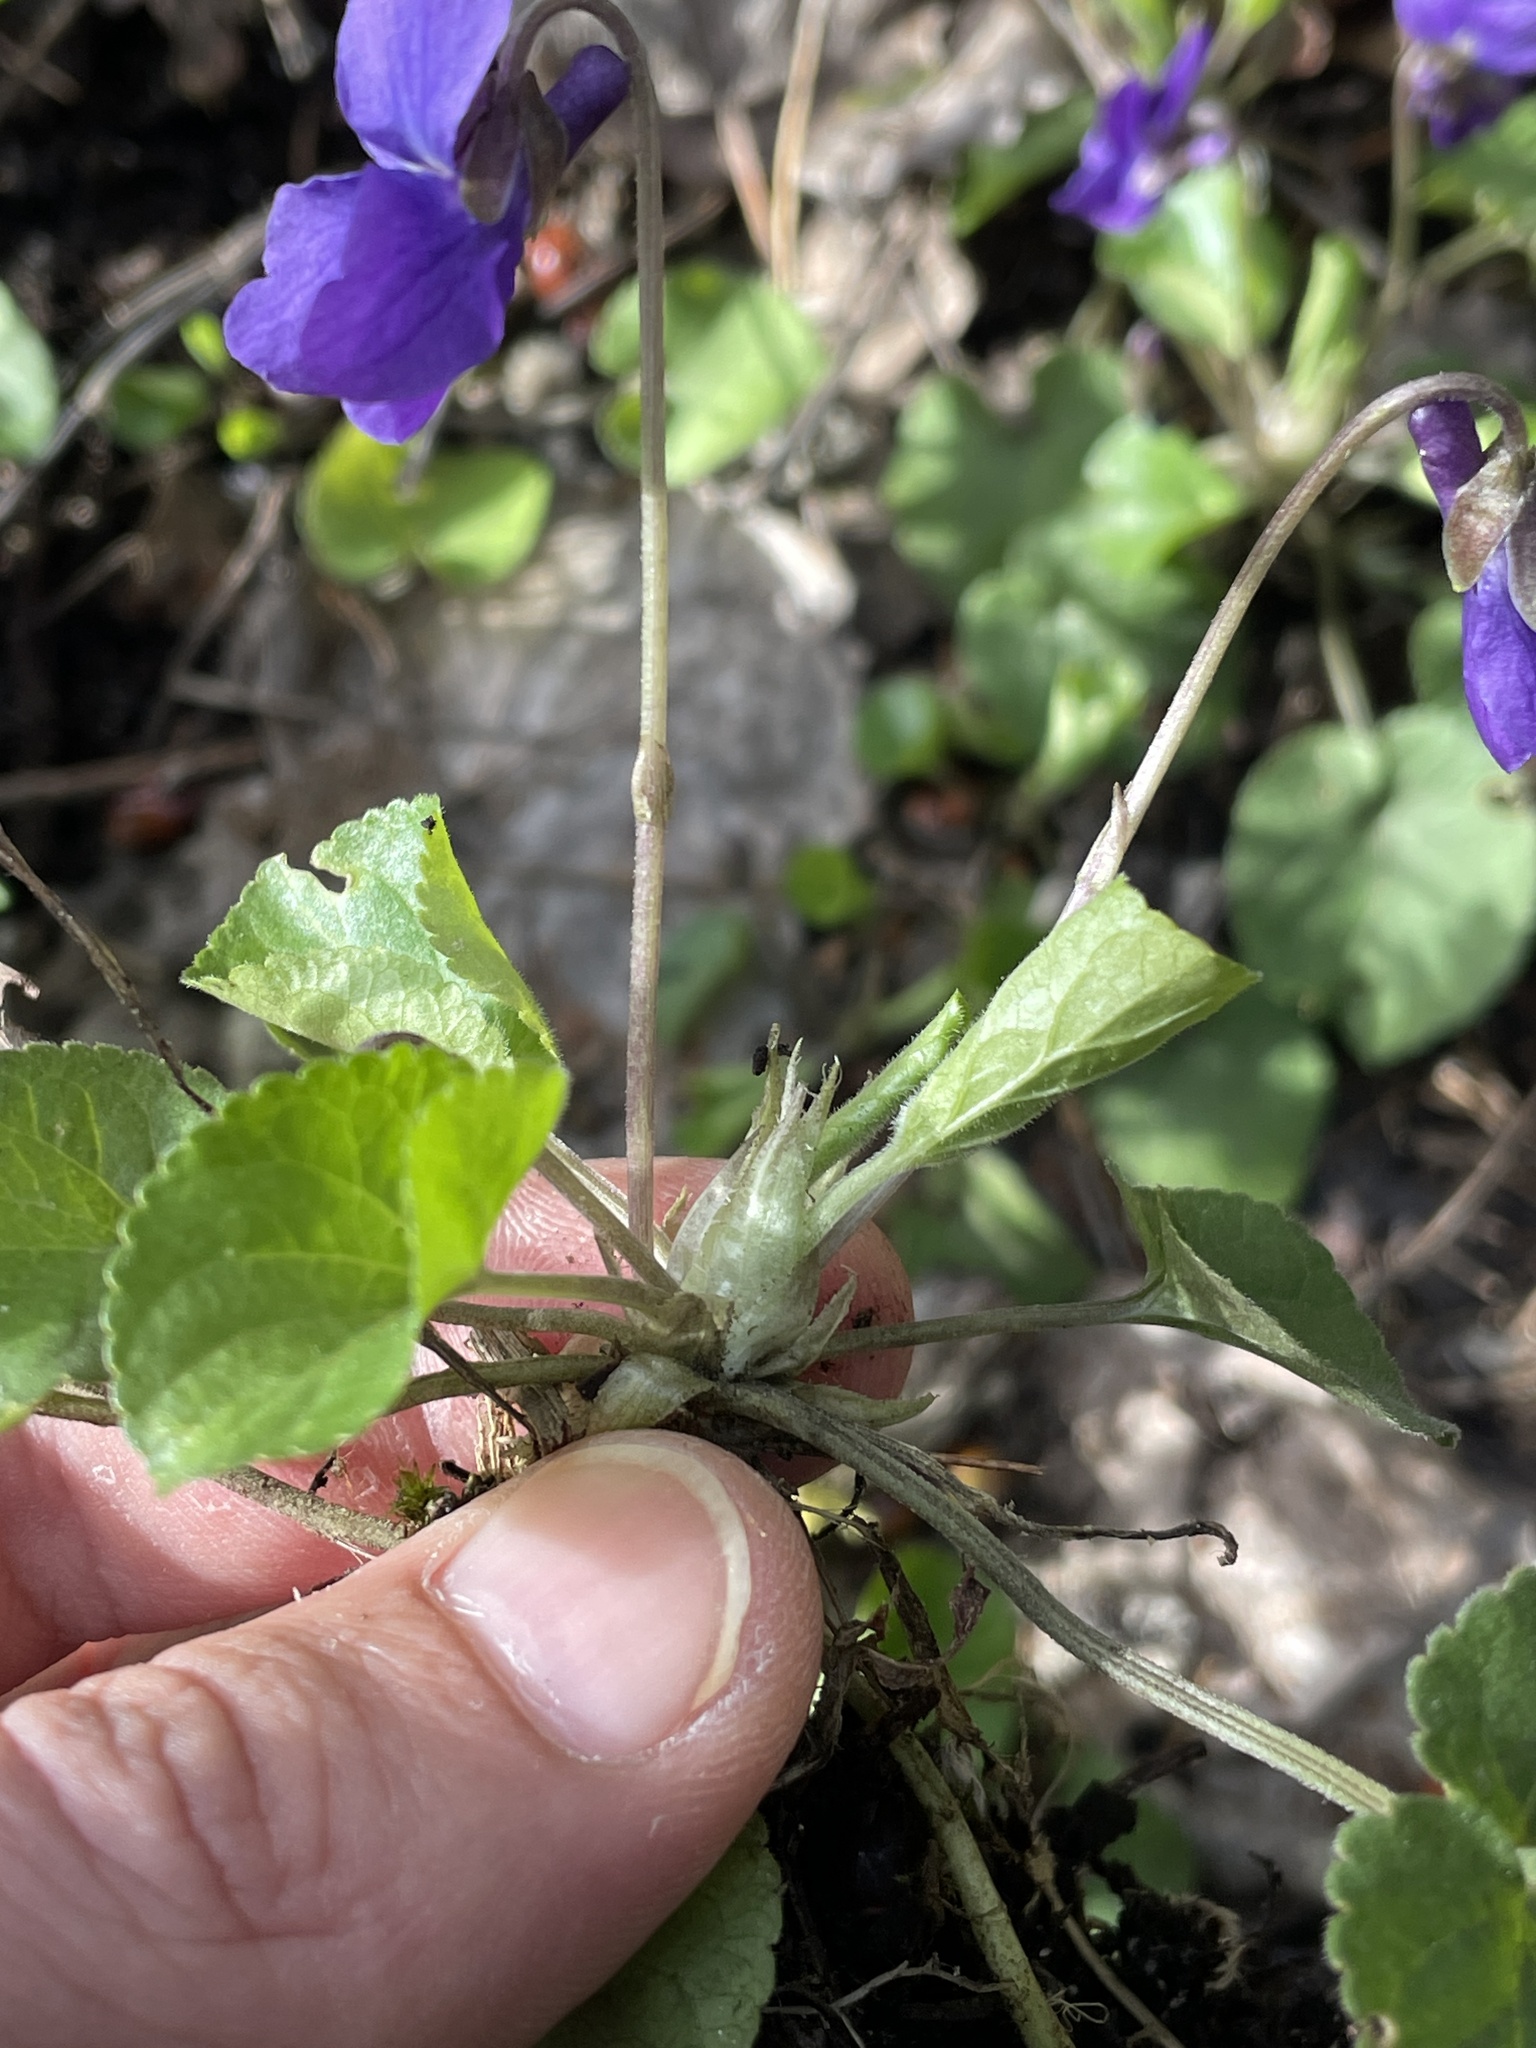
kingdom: Plantae
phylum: Tracheophyta
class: Magnoliopsida
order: Malpighiales
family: Violaceae
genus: Viola
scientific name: Viola odorata
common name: Sweet violet
